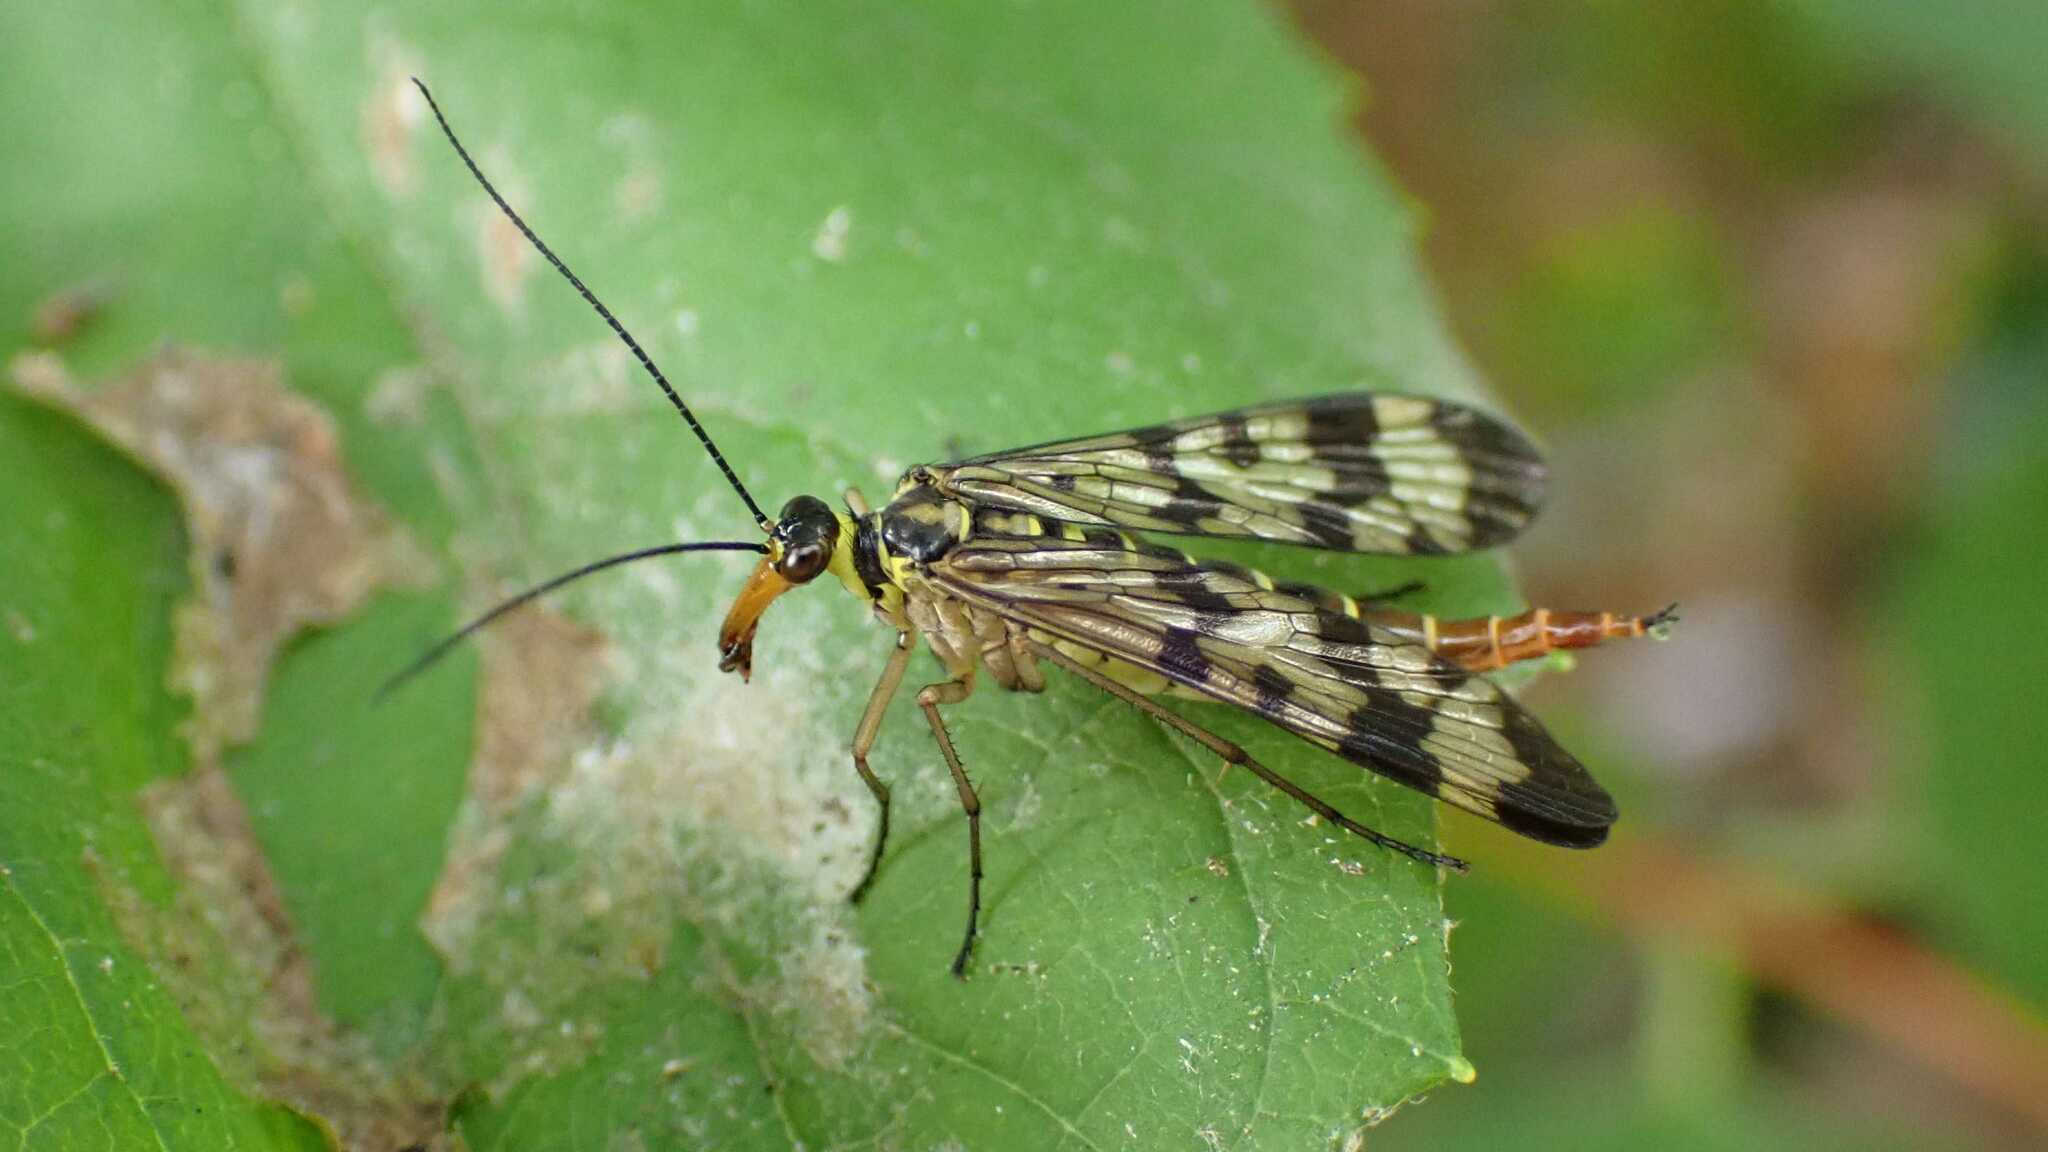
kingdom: Animalia
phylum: Arthropoda
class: Insecta
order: Mecoptera
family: Panorpidae
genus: Panorpa
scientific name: Panorpa
